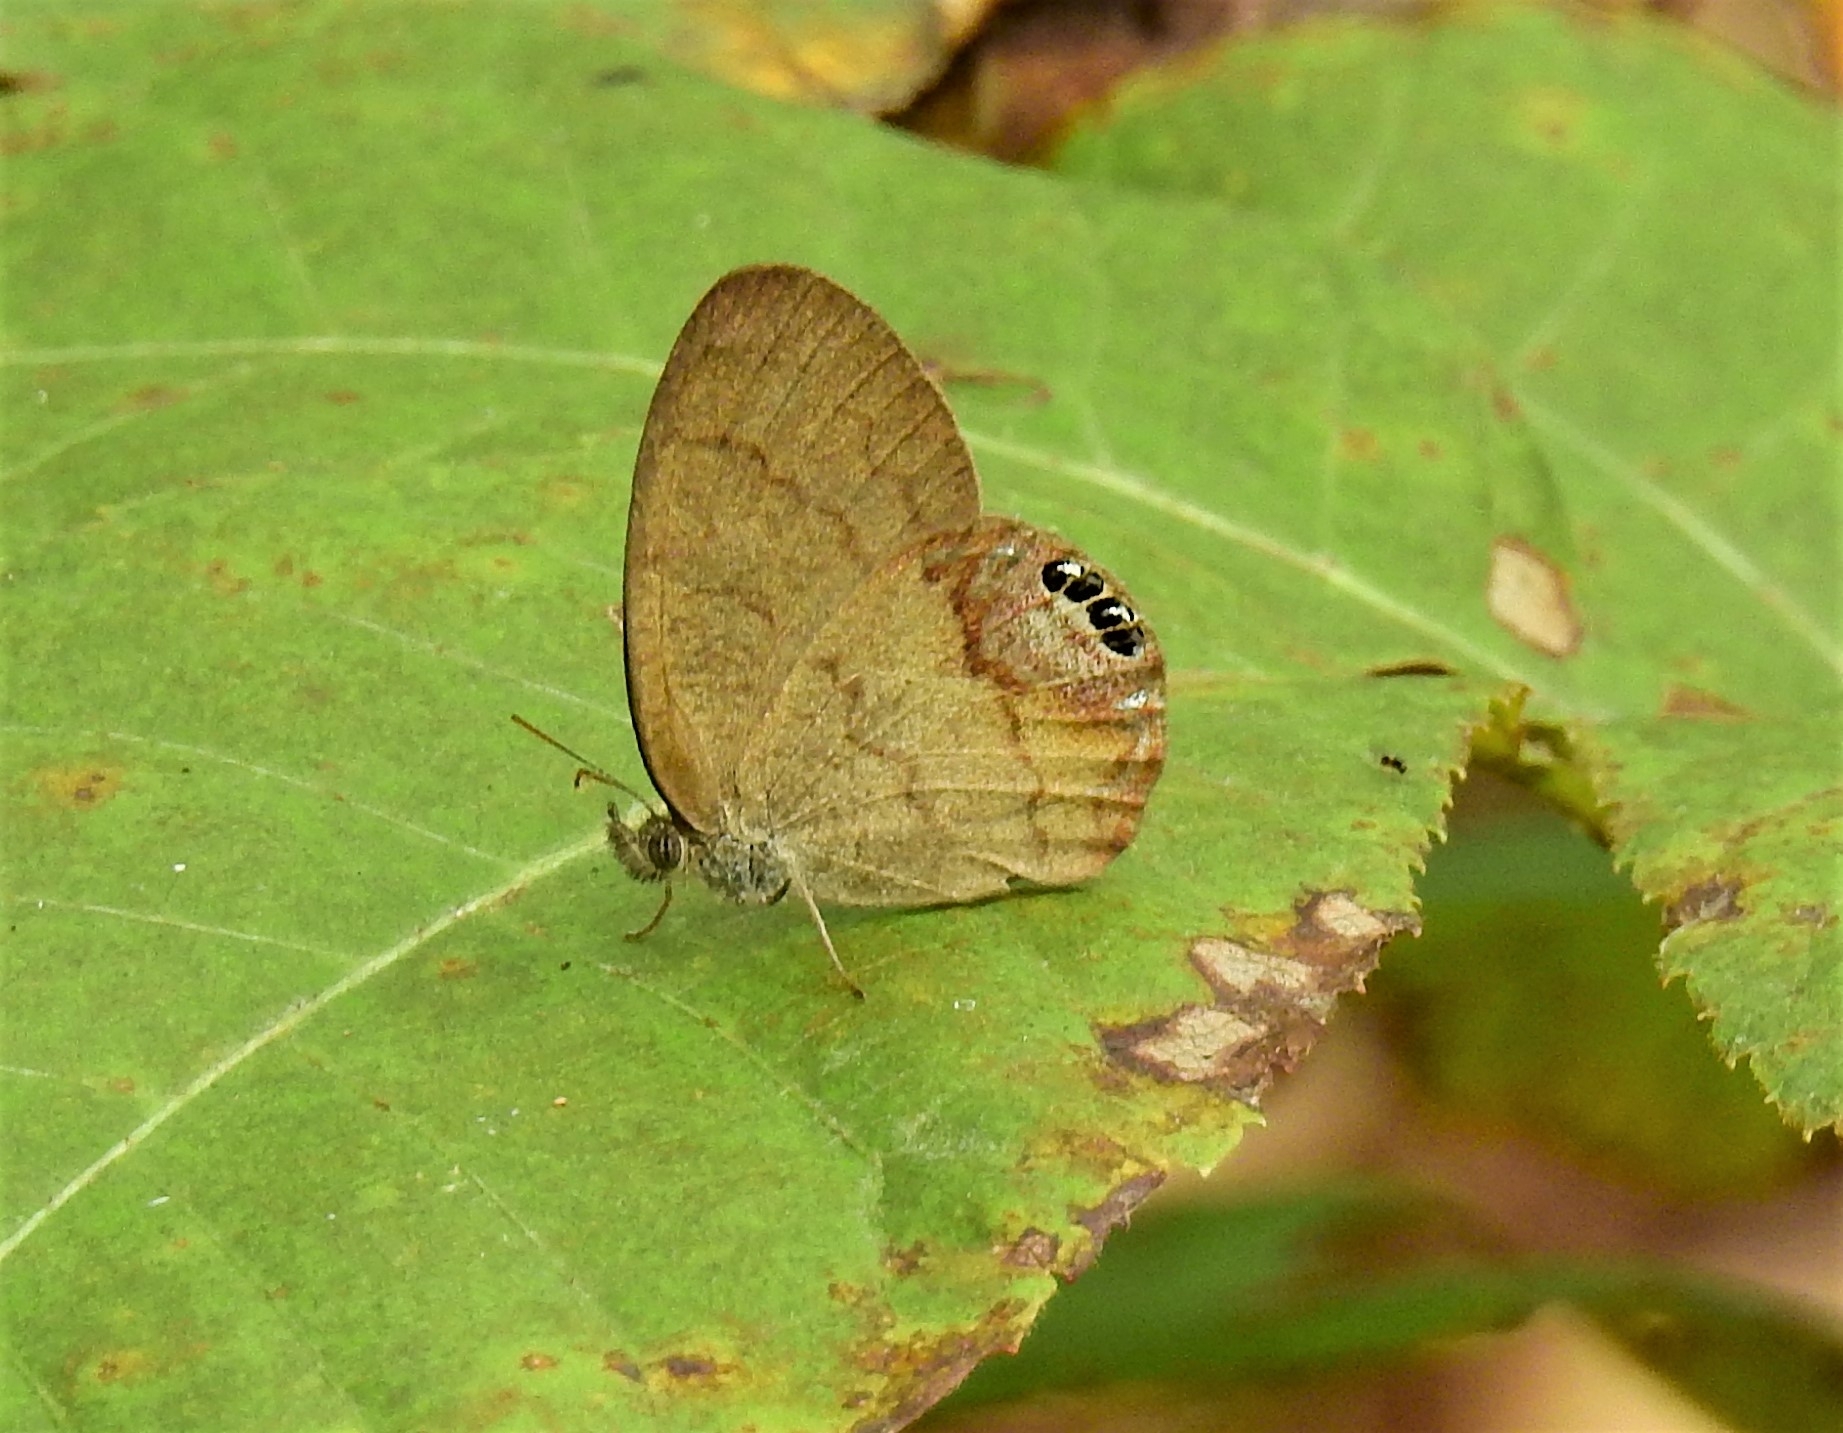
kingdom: Animalia
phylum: Arthropoda
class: Insecta
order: Lepidoptera
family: Nymphalidae
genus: Euptychia
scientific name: Euptychia cornelius
